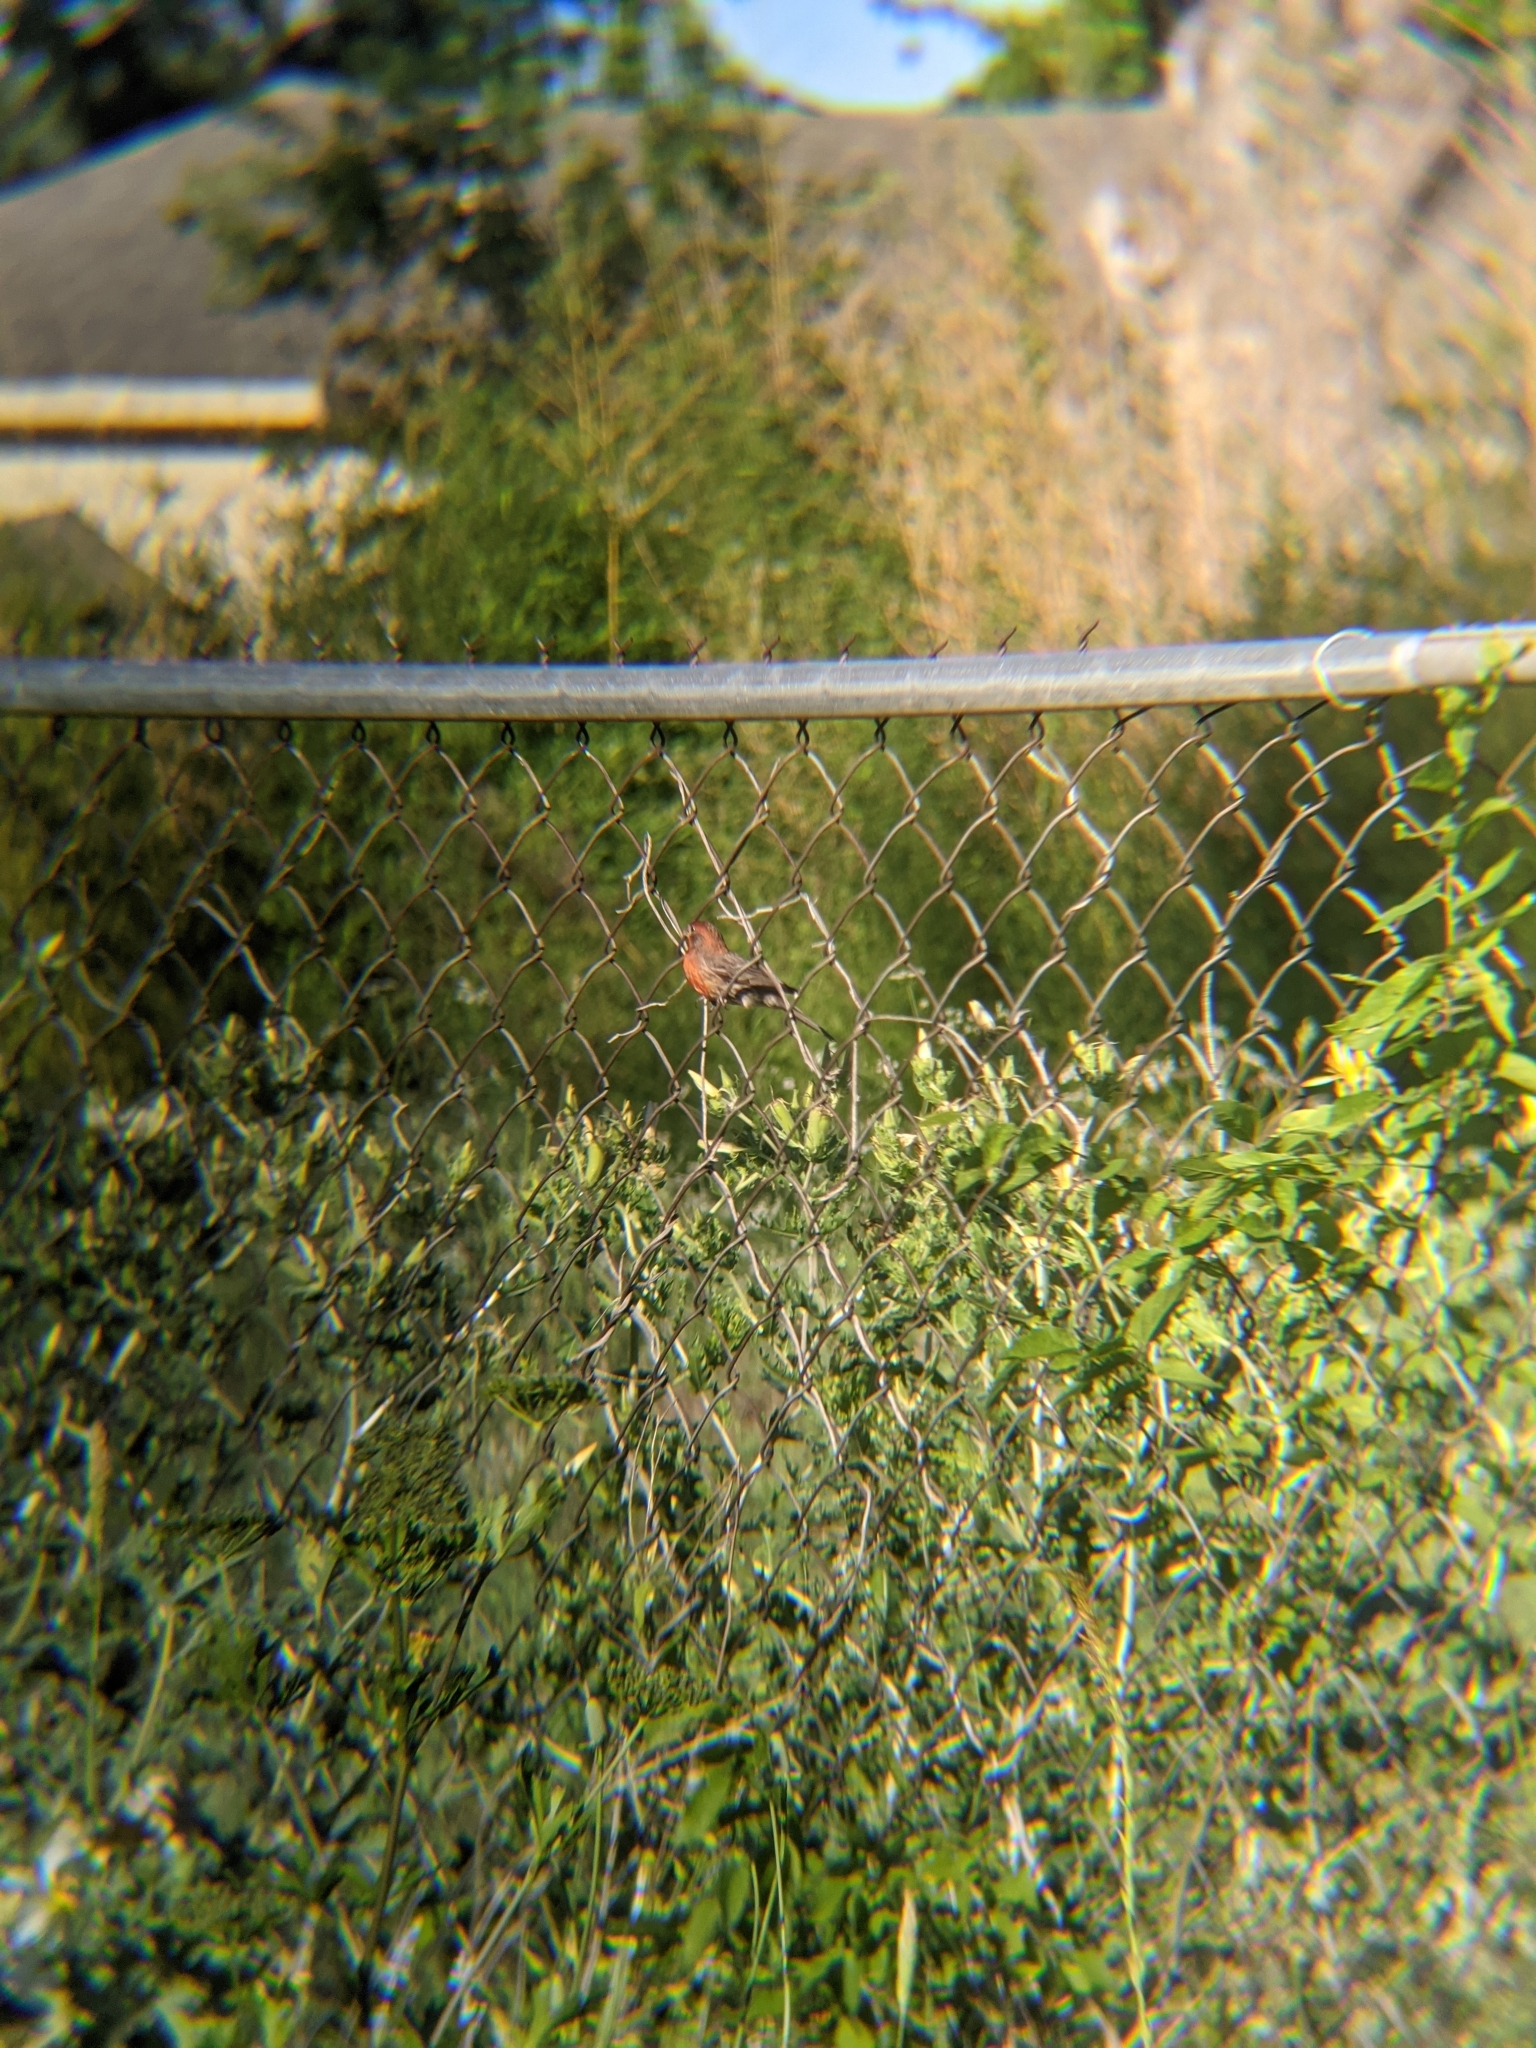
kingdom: Animalia
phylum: Chordata
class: Aves
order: Passeriformes
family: Fringillidae
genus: Haemorhous
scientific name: Haemorhous mexicanus
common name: House finch
